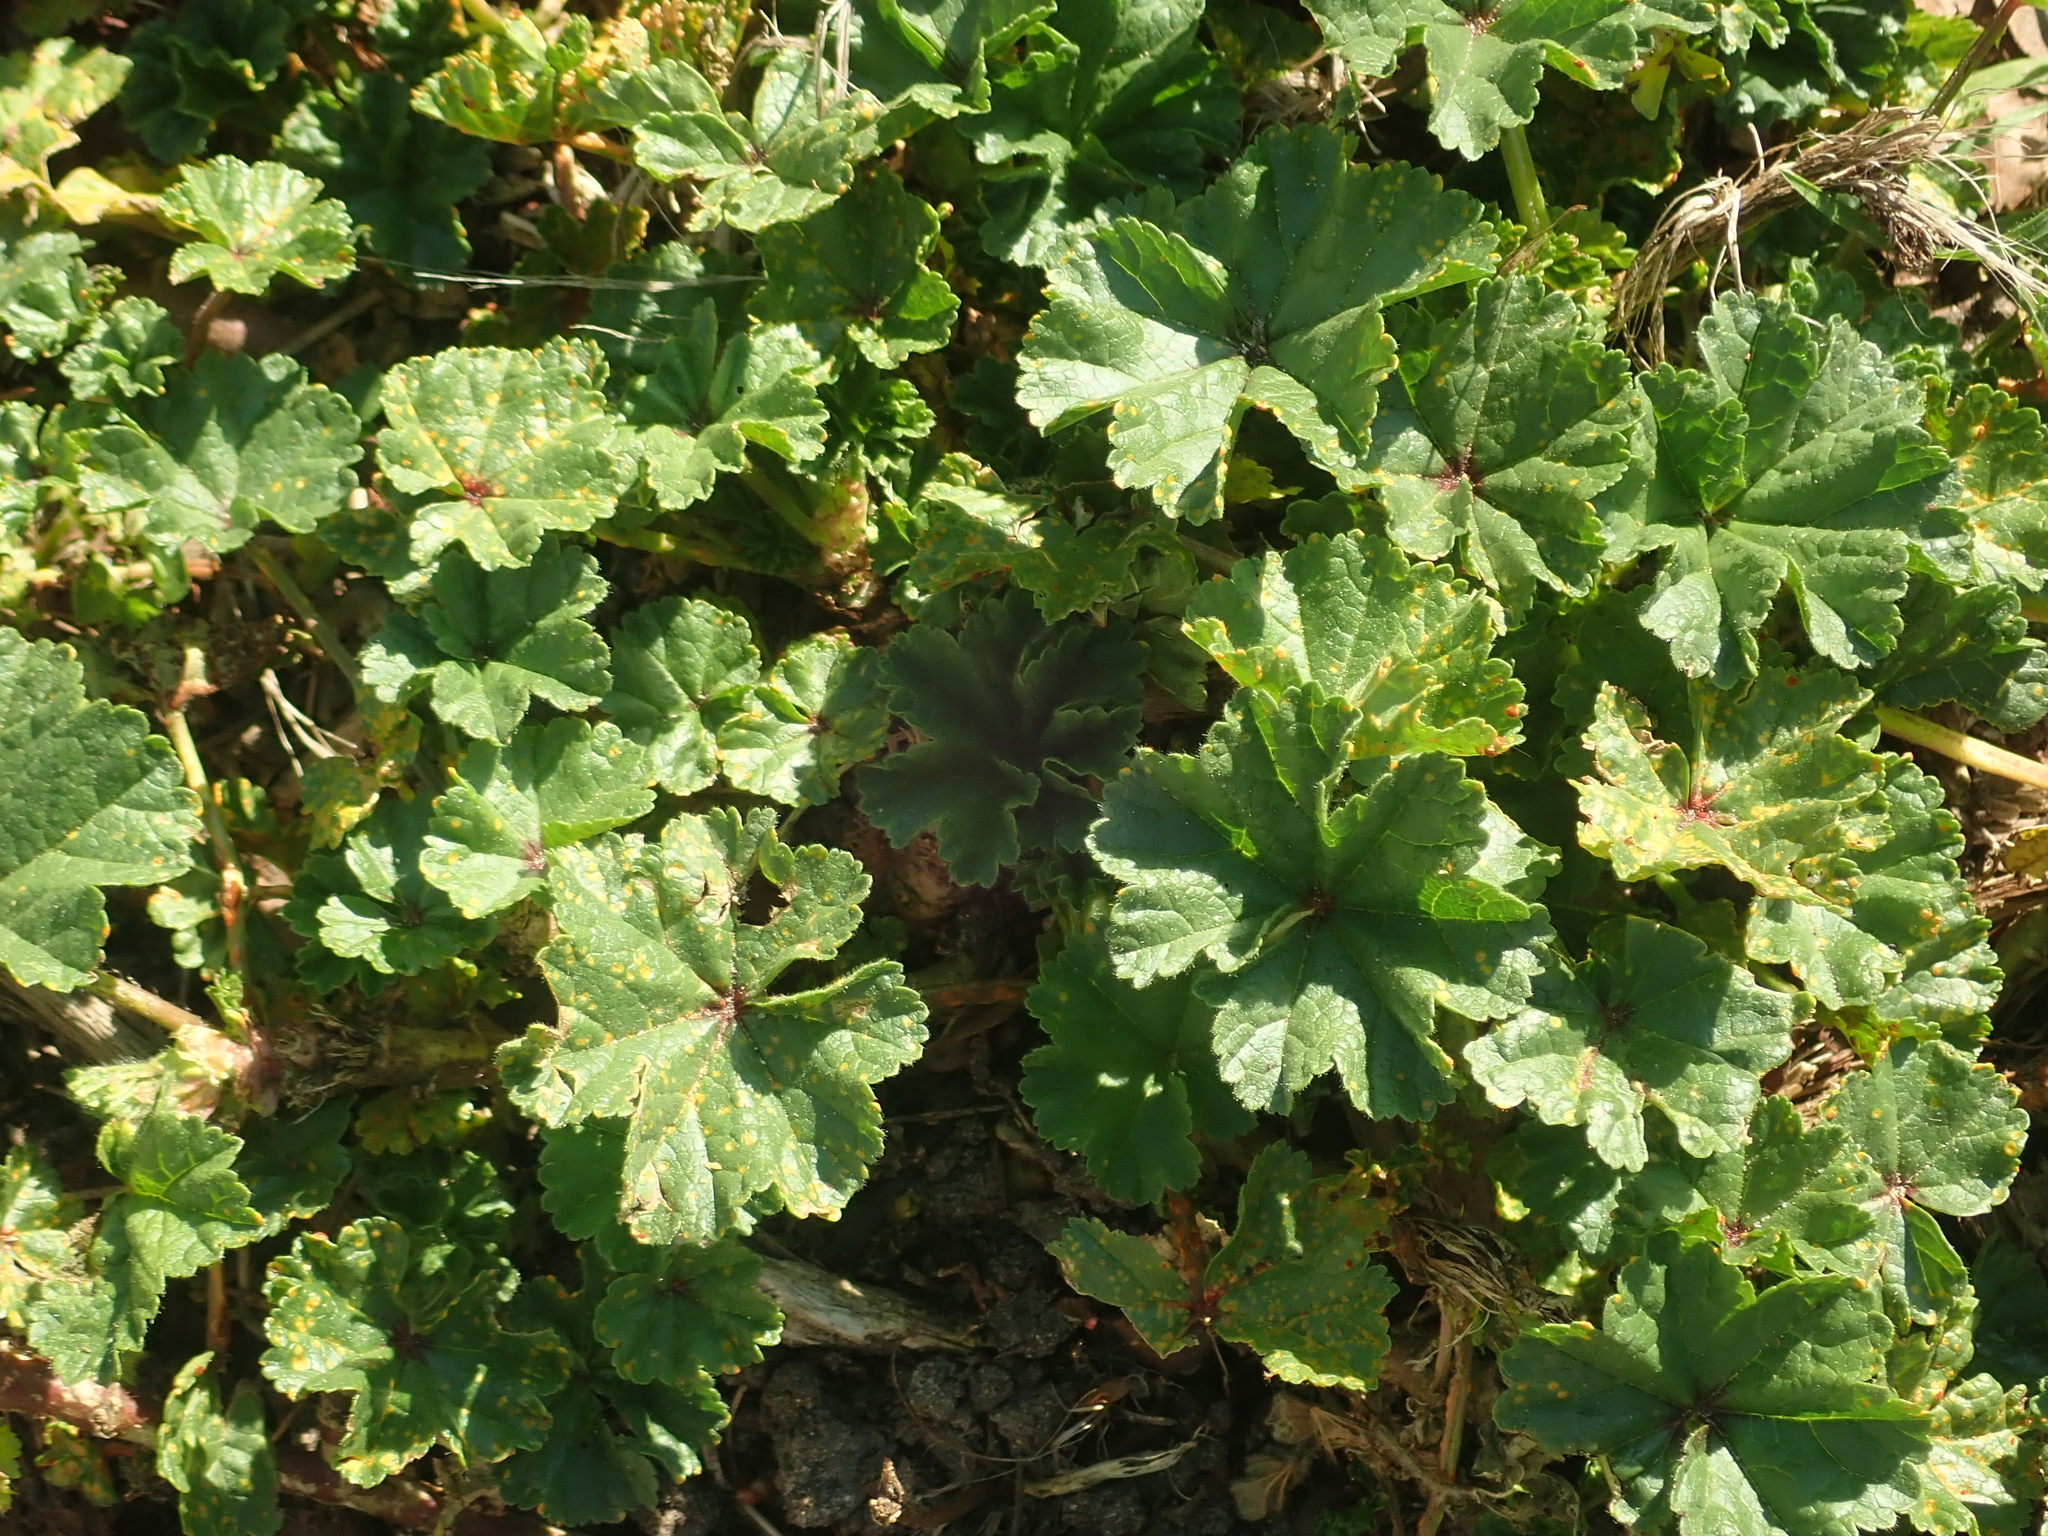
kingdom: Plantae
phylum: Tracheophyta
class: Magnoliopsida
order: Malvales
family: Malvaceae
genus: Malva
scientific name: Malva sylvestris
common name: Common mallow
